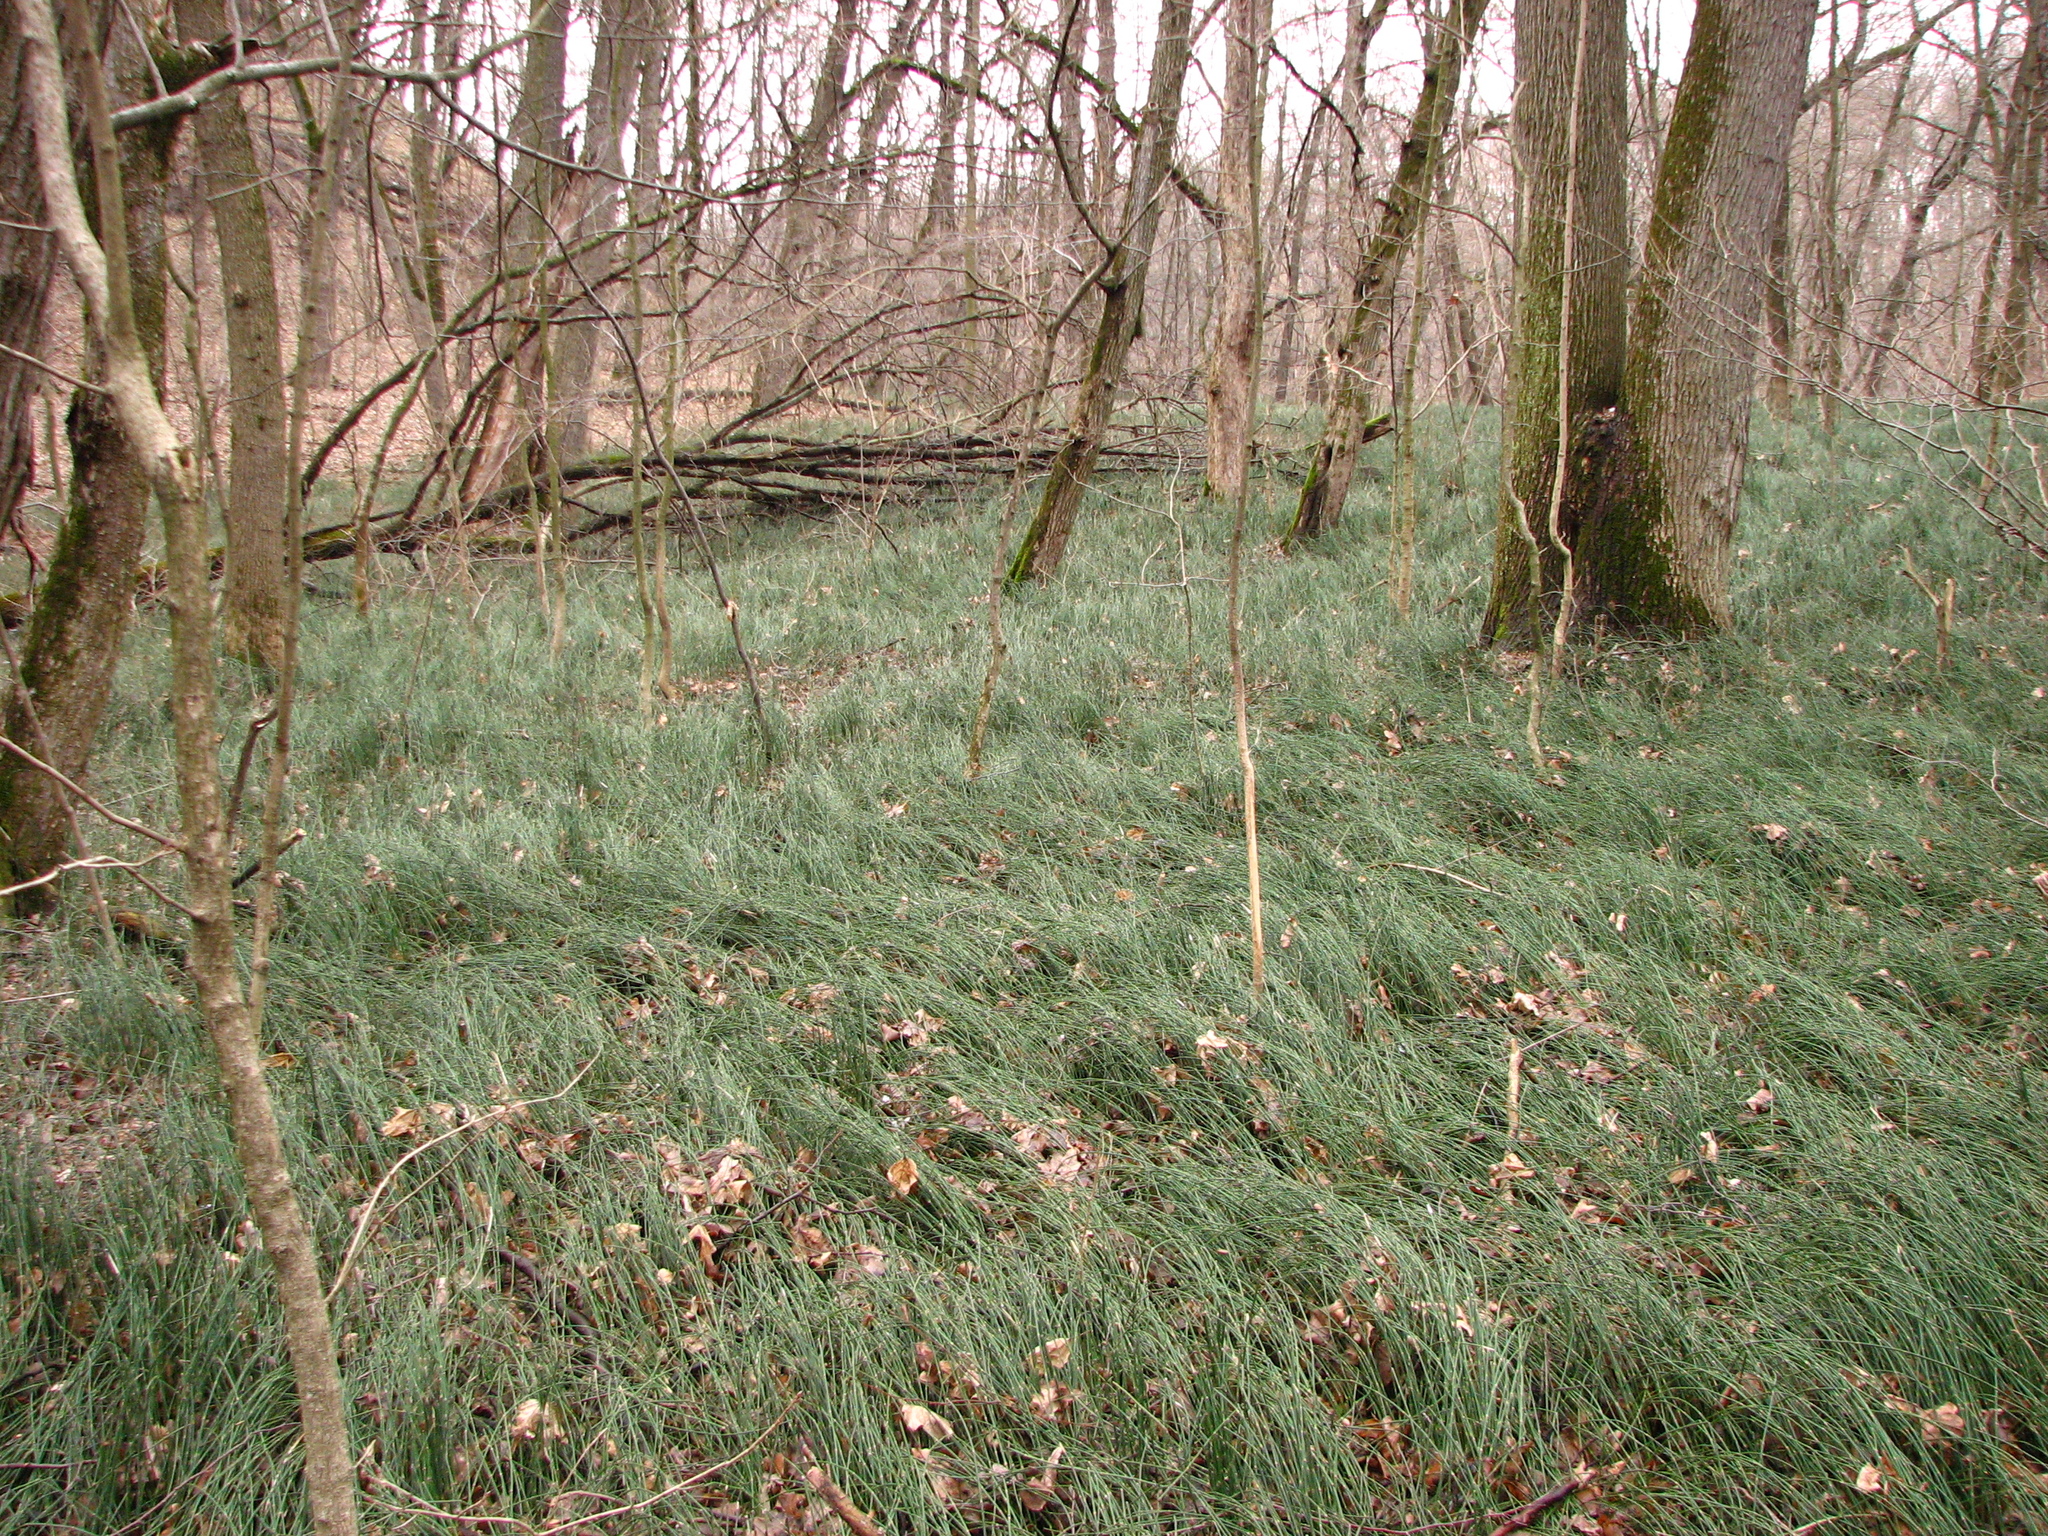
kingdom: Plantae
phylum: Tracheophyta
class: Polypodiopsida
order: Equisetales
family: Equisetaceae
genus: Equisetum
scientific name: Equisetum hyemale
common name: Rough horsetail
